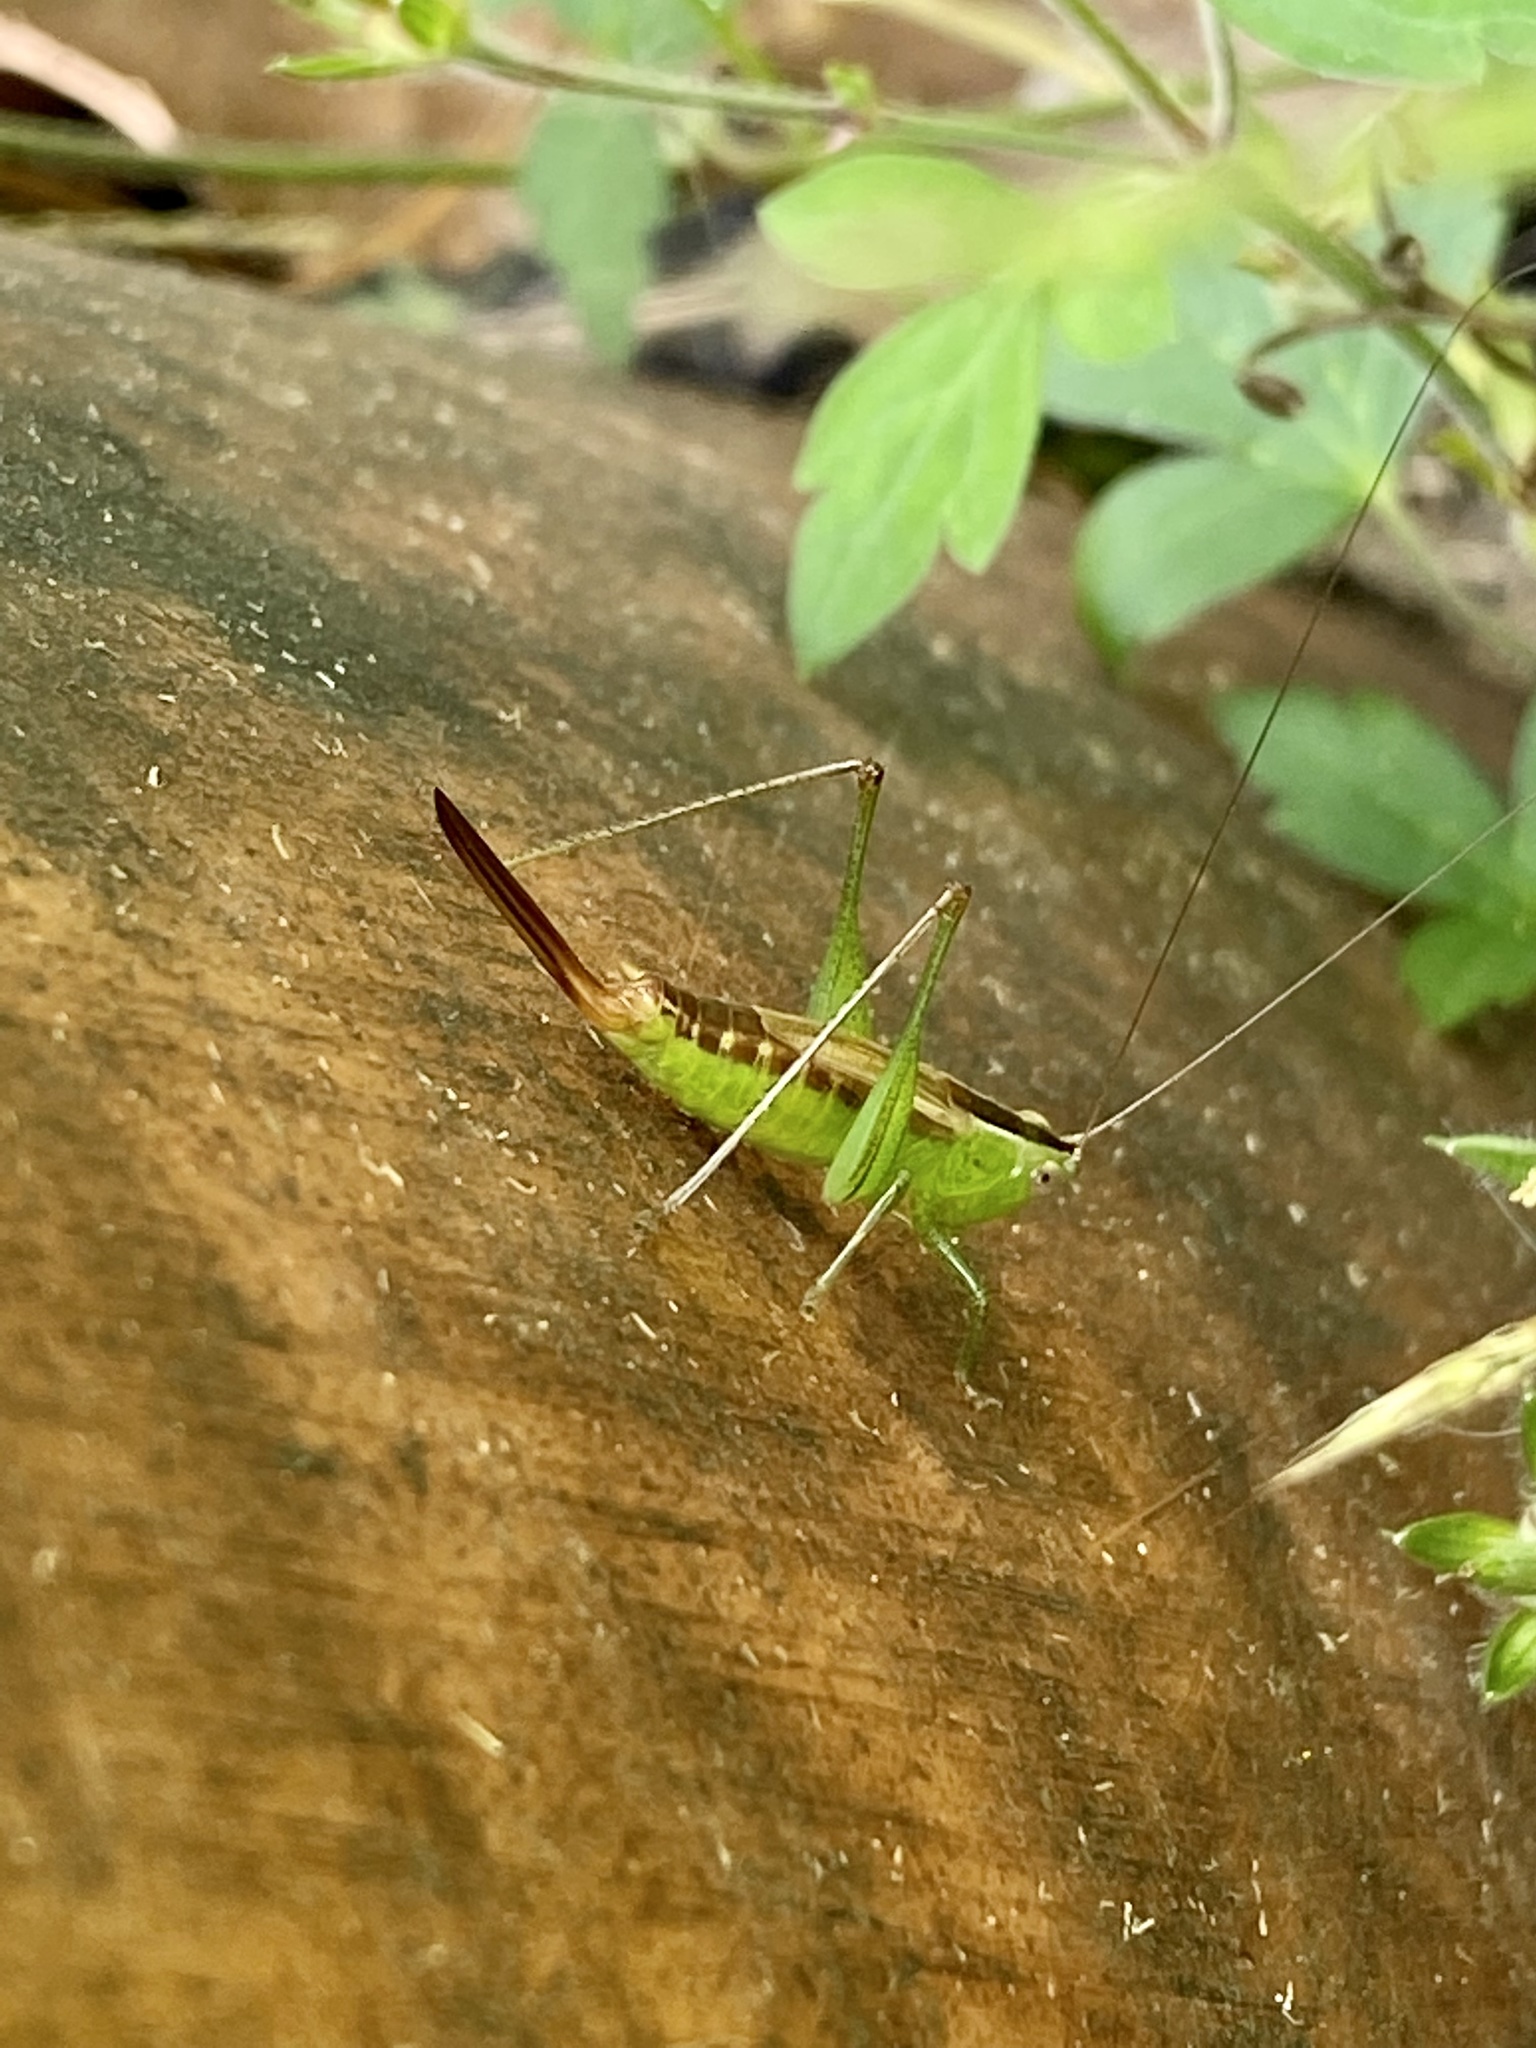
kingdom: Animalia
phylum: Arthropoda
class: Insecta
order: Orthoptera
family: Tettigoniidae
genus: Conocephalus
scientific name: Conocephalus brevipennis
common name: Short-winged meadow katydid
